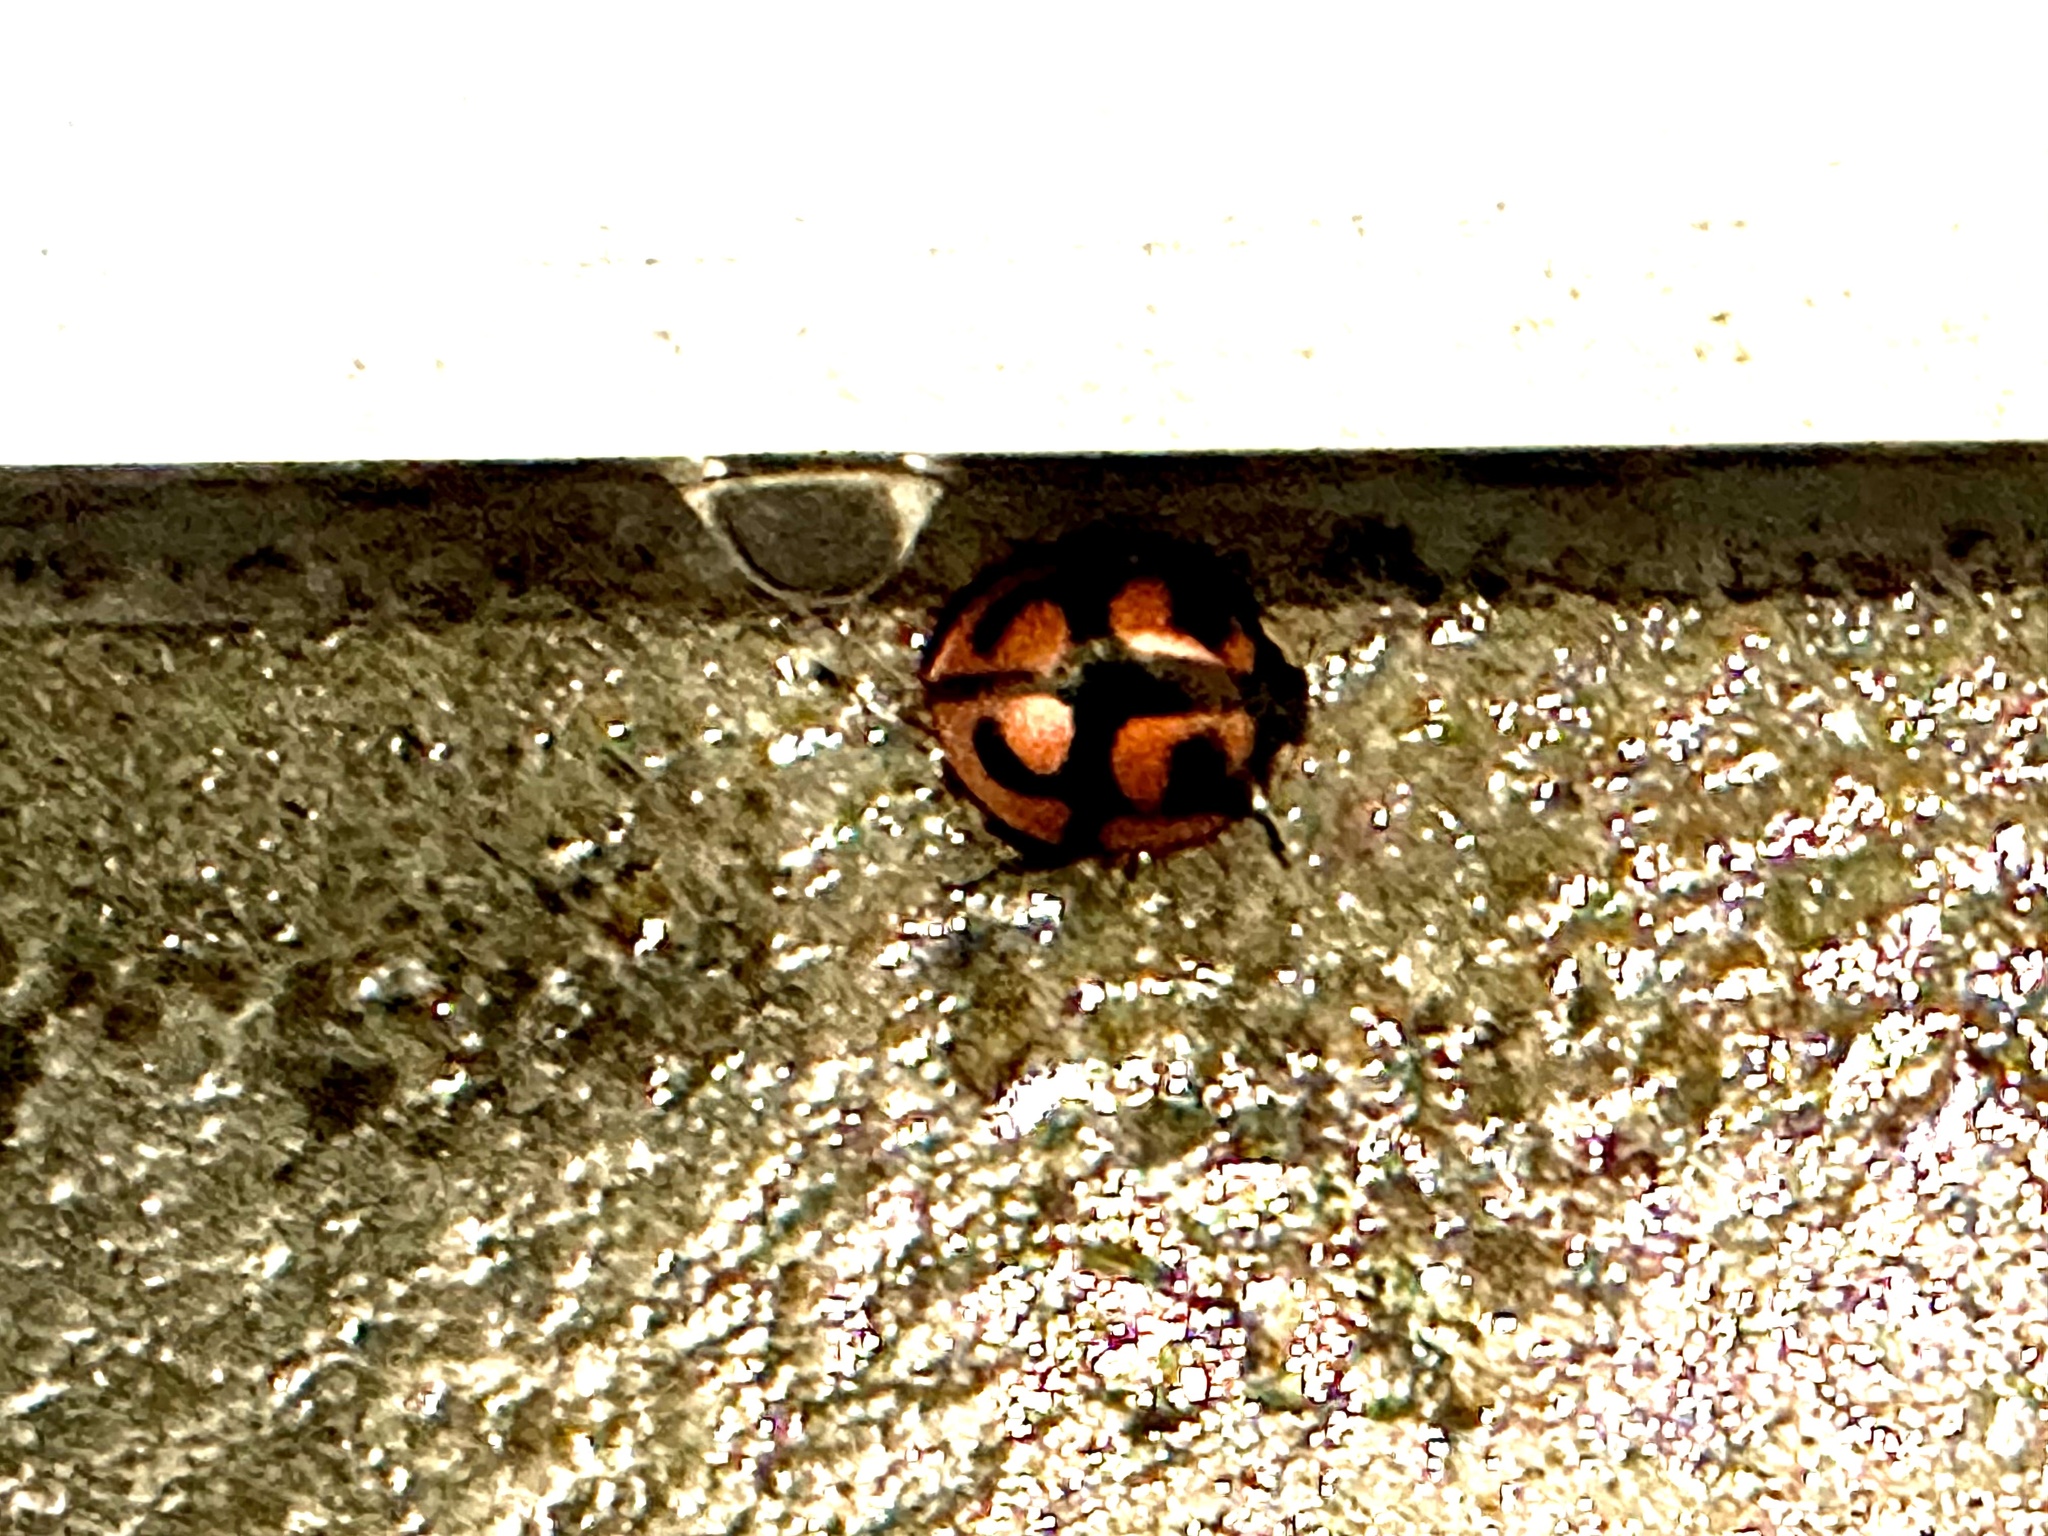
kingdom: Animalia
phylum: Arthropoda
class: Insecta
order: Coleoptera
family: Coccinellidae
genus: Aiolocaria
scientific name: Aiolocaria hexaspilota
